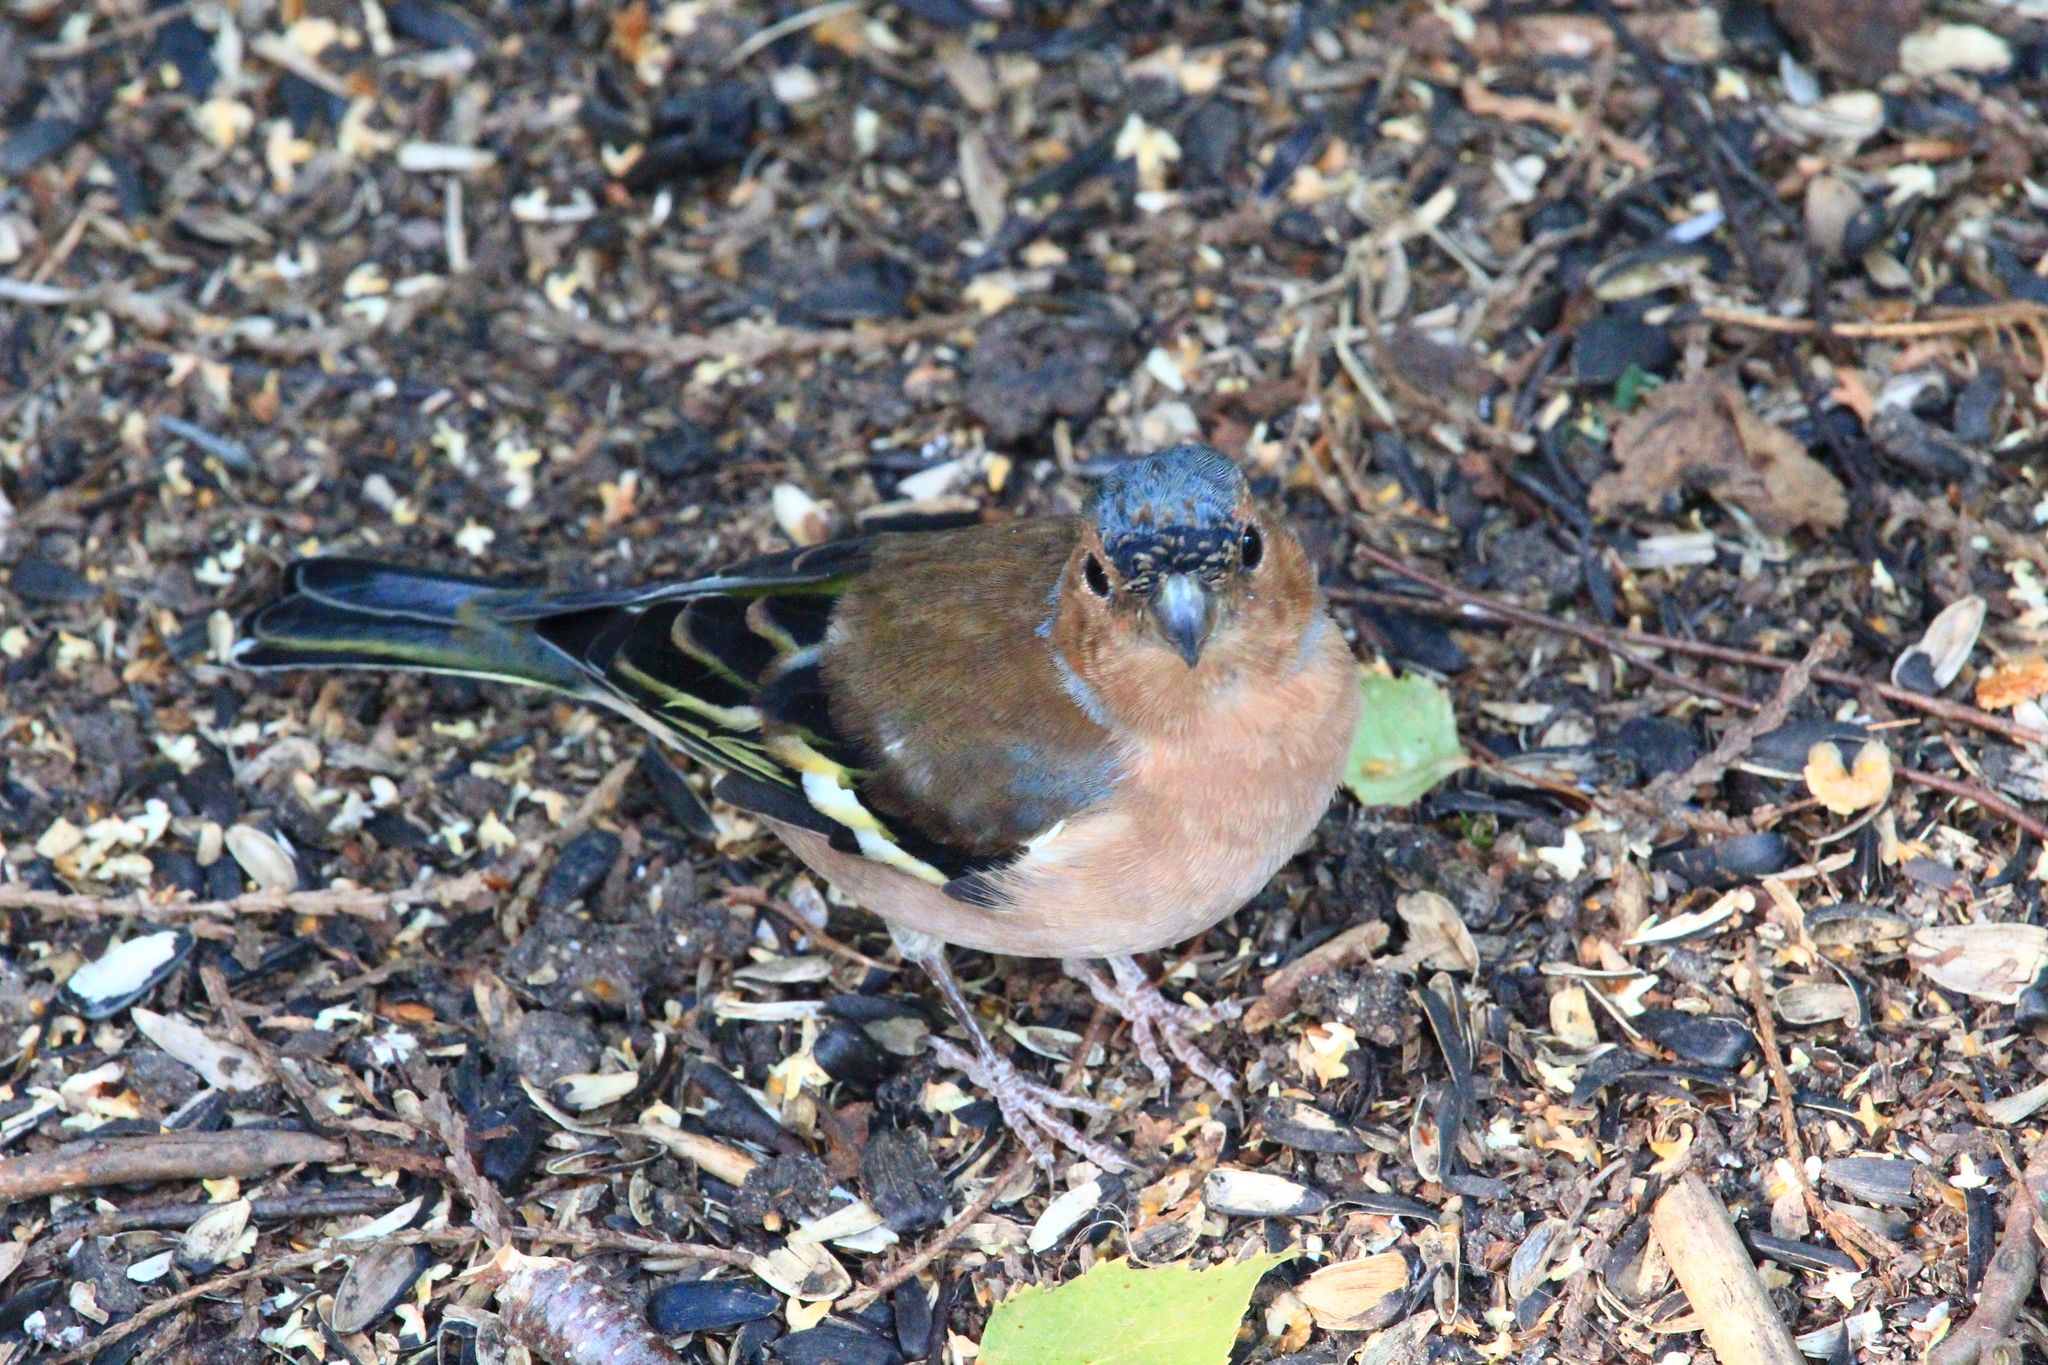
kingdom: Animalia
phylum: Chordata
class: Aves
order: Passeriformes
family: Fringillidae
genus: Fringilla
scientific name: Fringilla coelebs
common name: Common chaffinch
